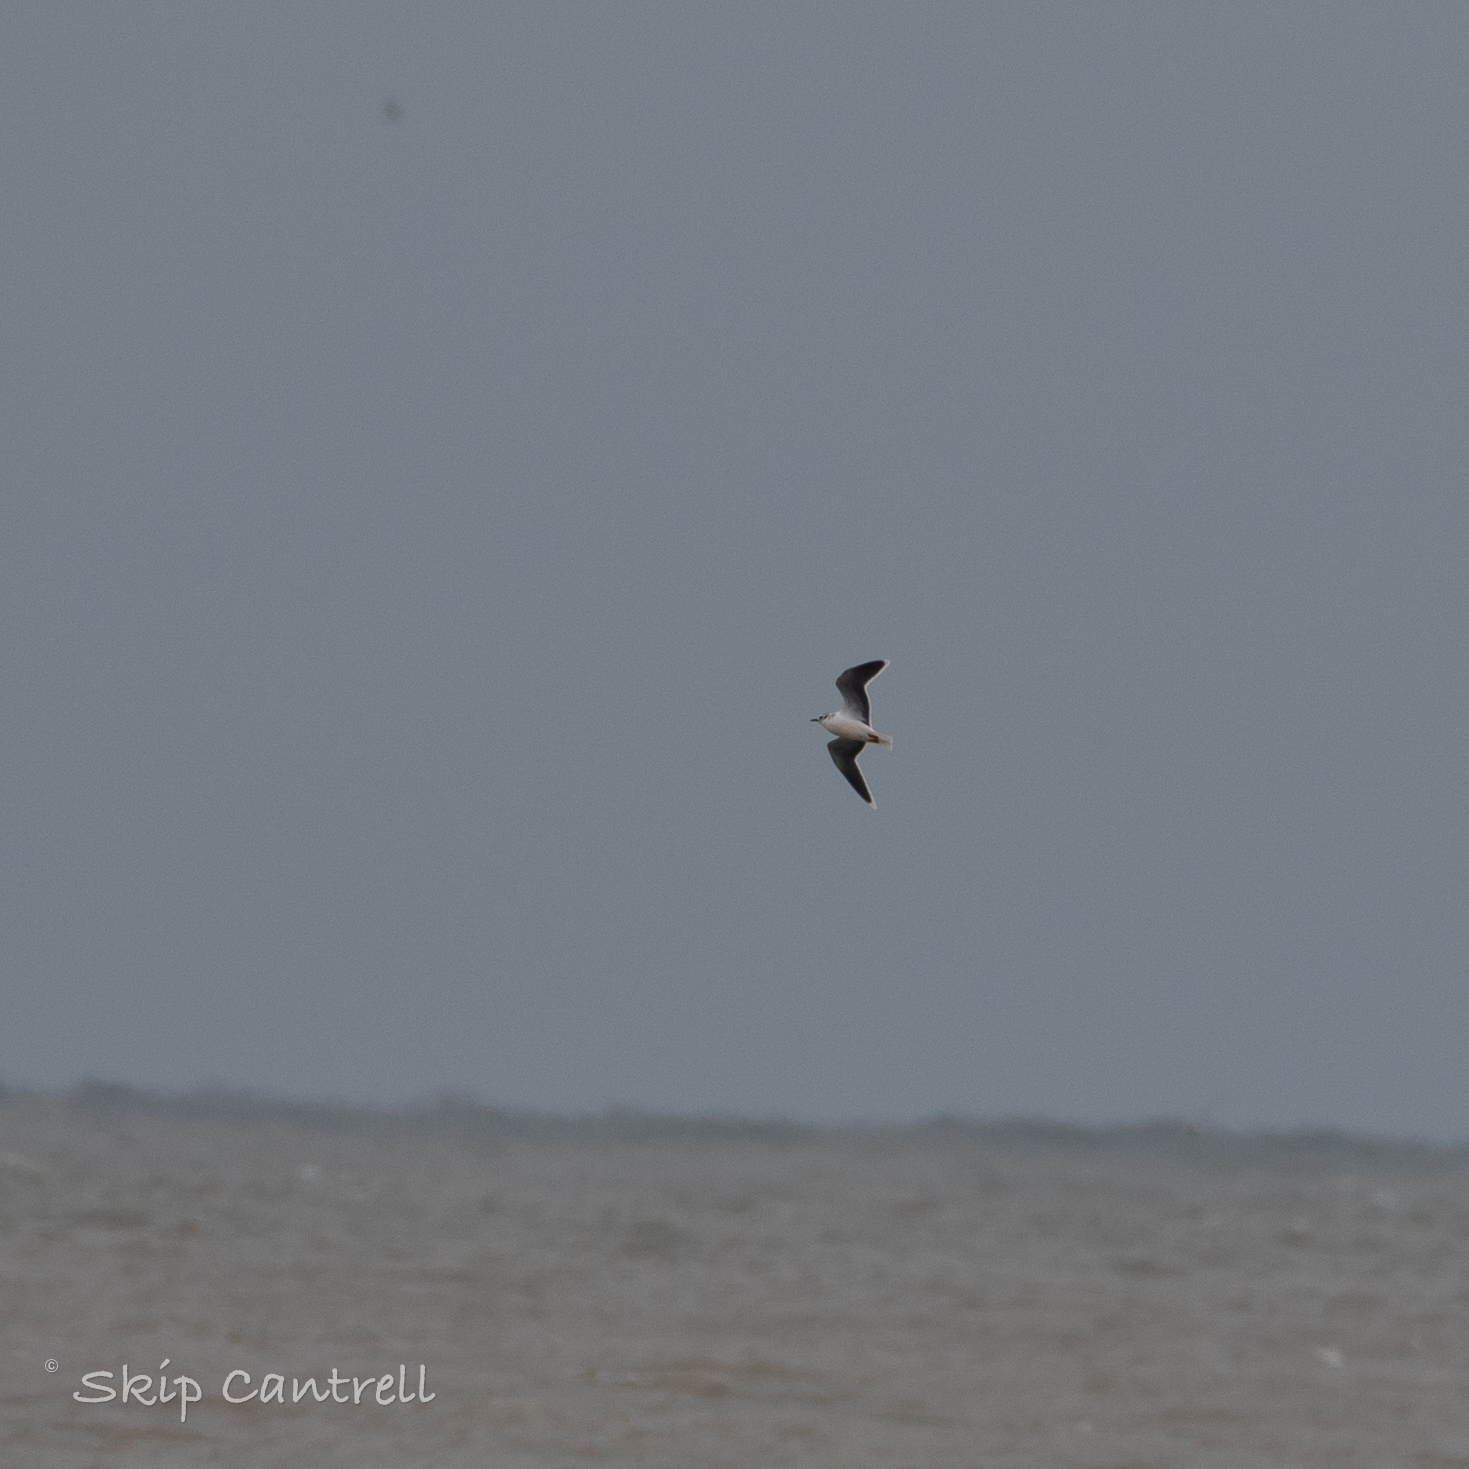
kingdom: Animalia
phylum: Chordata
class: Aves
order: Charadriiformes
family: Laridae
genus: Hydrocoloeus
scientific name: Hydrocoloeus minutus
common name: Little gull
